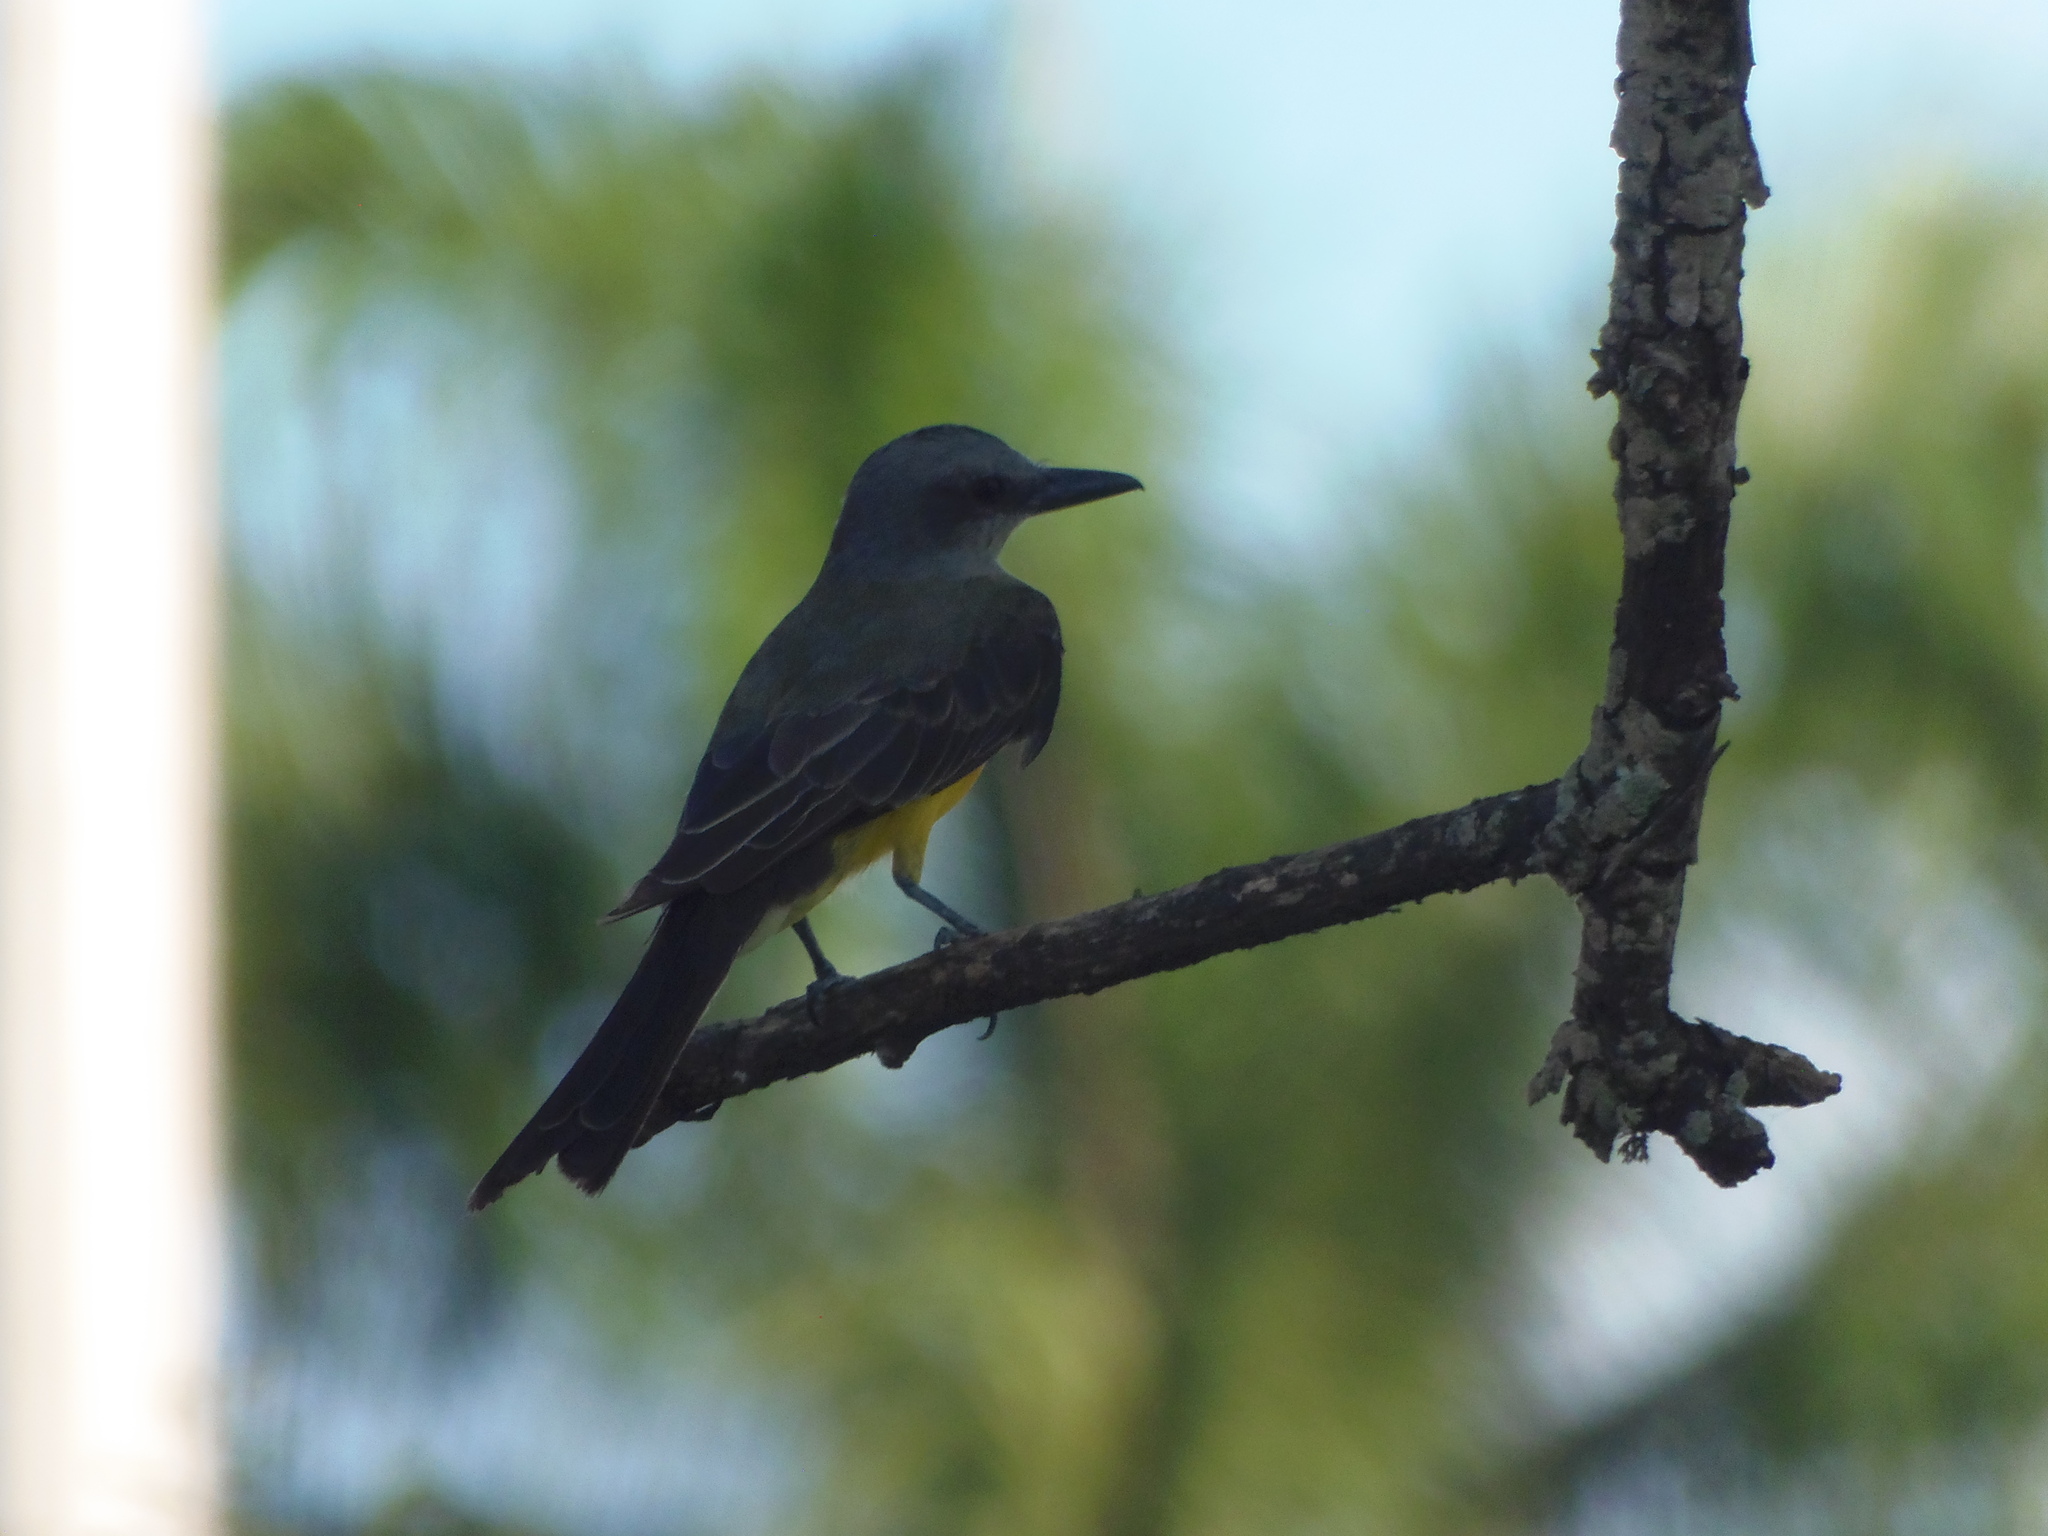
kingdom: Animalia
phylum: Chordata
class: Aves
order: Passeriformes
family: Tyrannidae
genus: Tyrannus
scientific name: Tyrannus melancholicus
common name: Tropical kingbird
